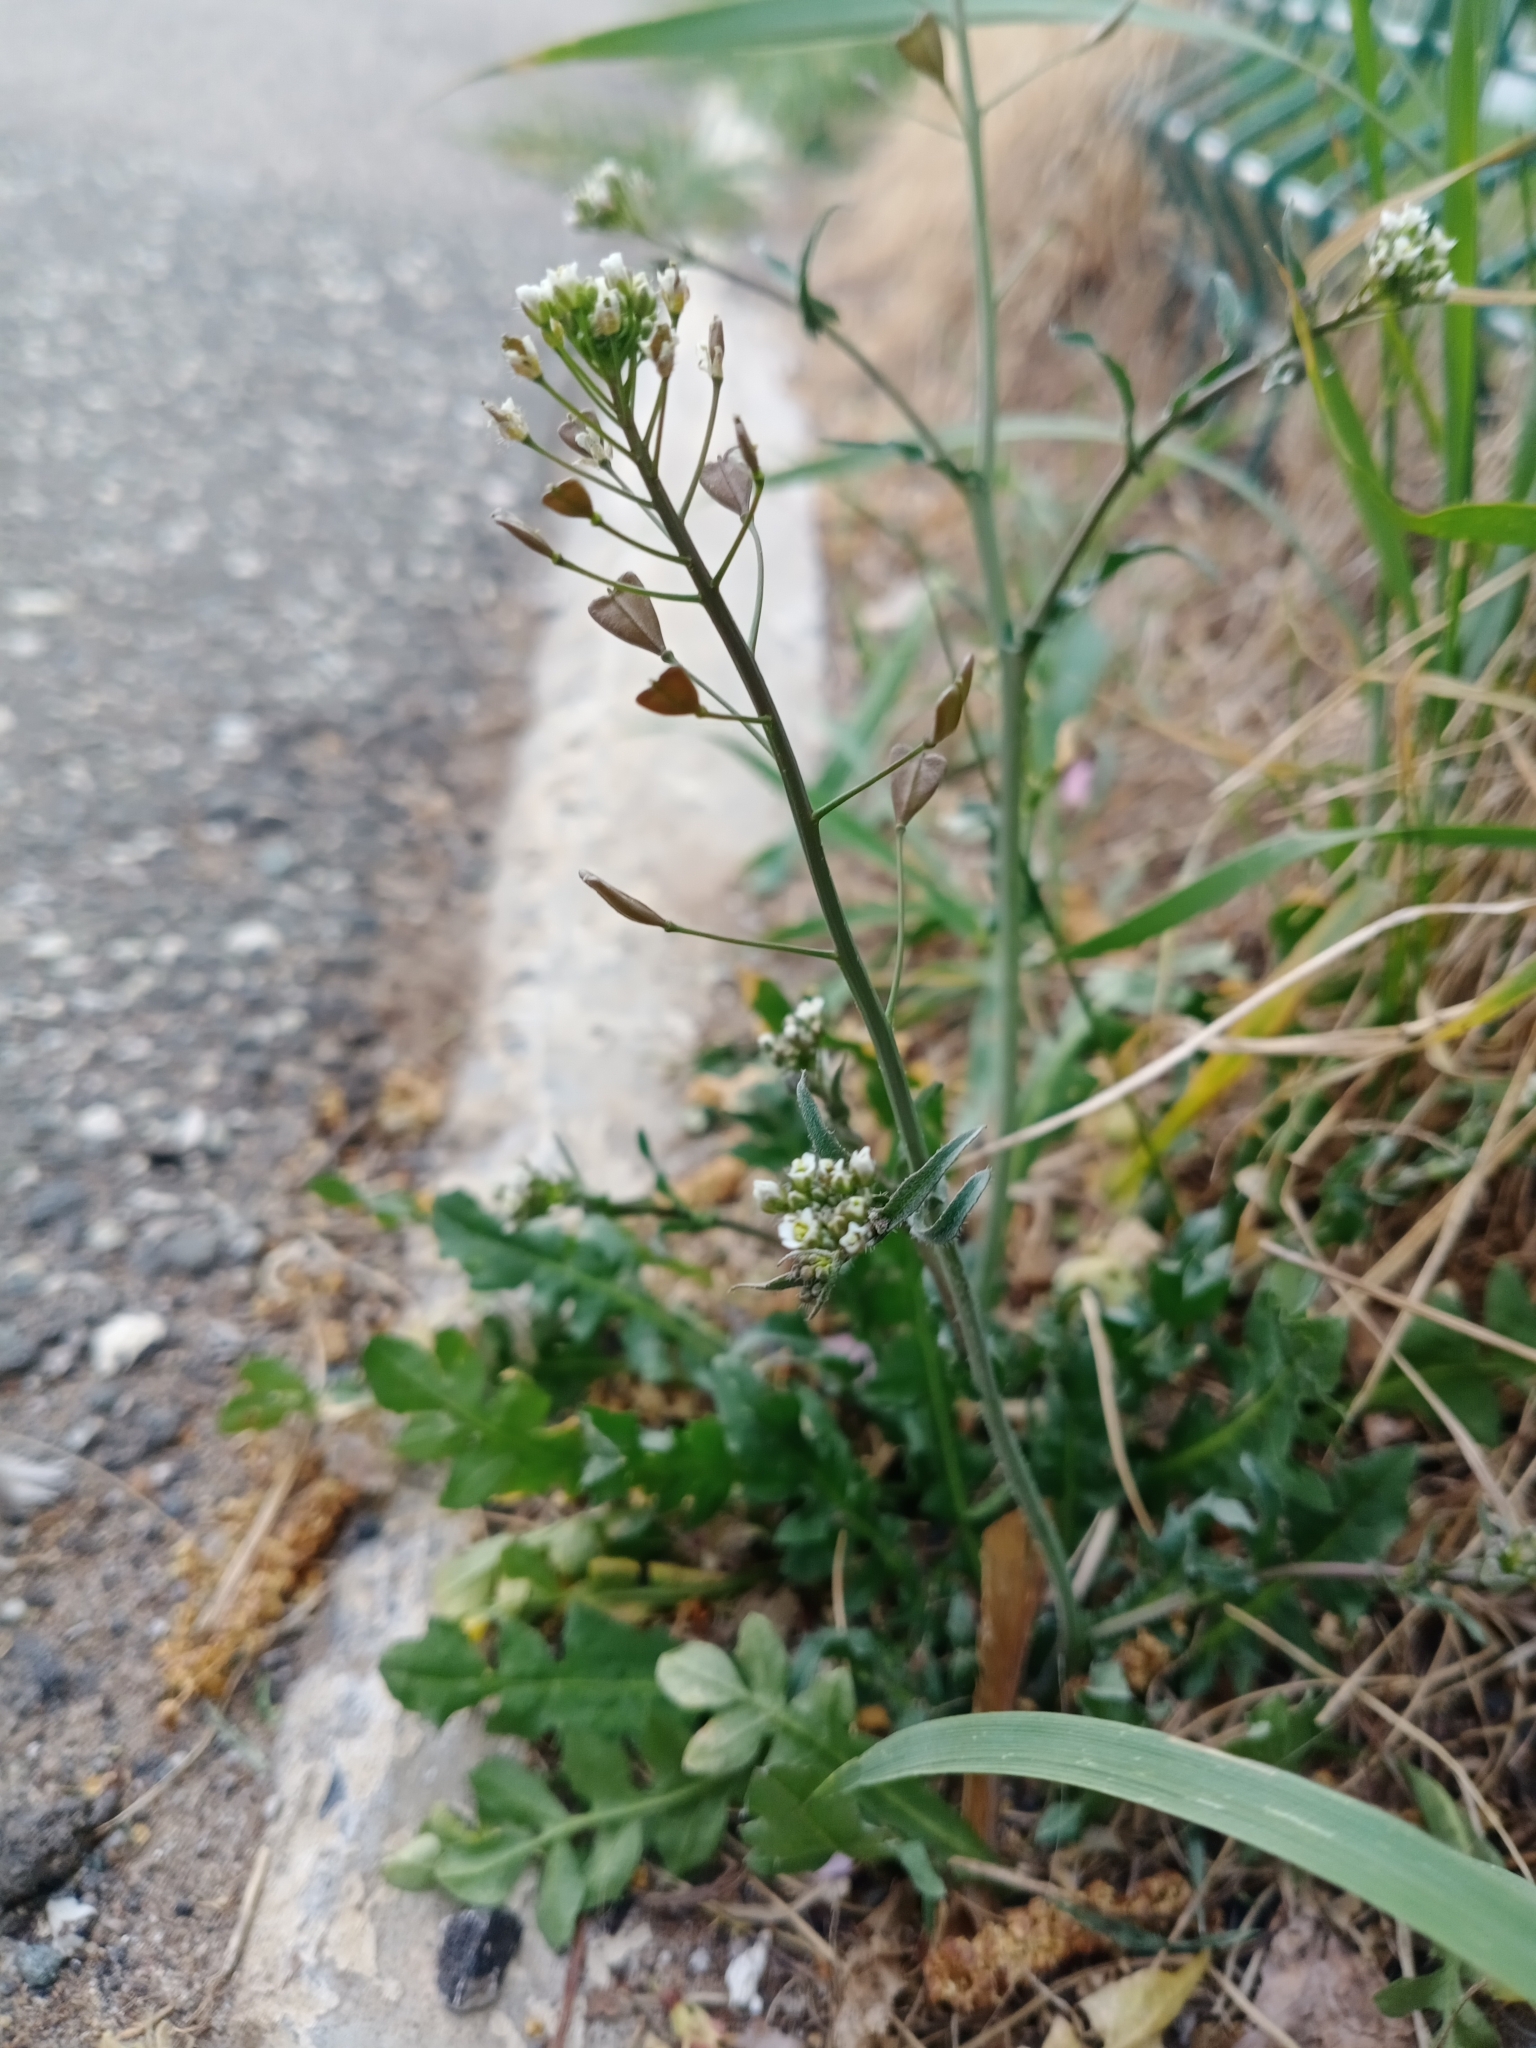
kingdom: Plantae
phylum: Tracheophyta
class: Magnoliopsida
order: Brassicales
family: Brassicaceae
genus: Capsella
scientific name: Capsella bursa-pastoris
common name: Shepherd's purse
